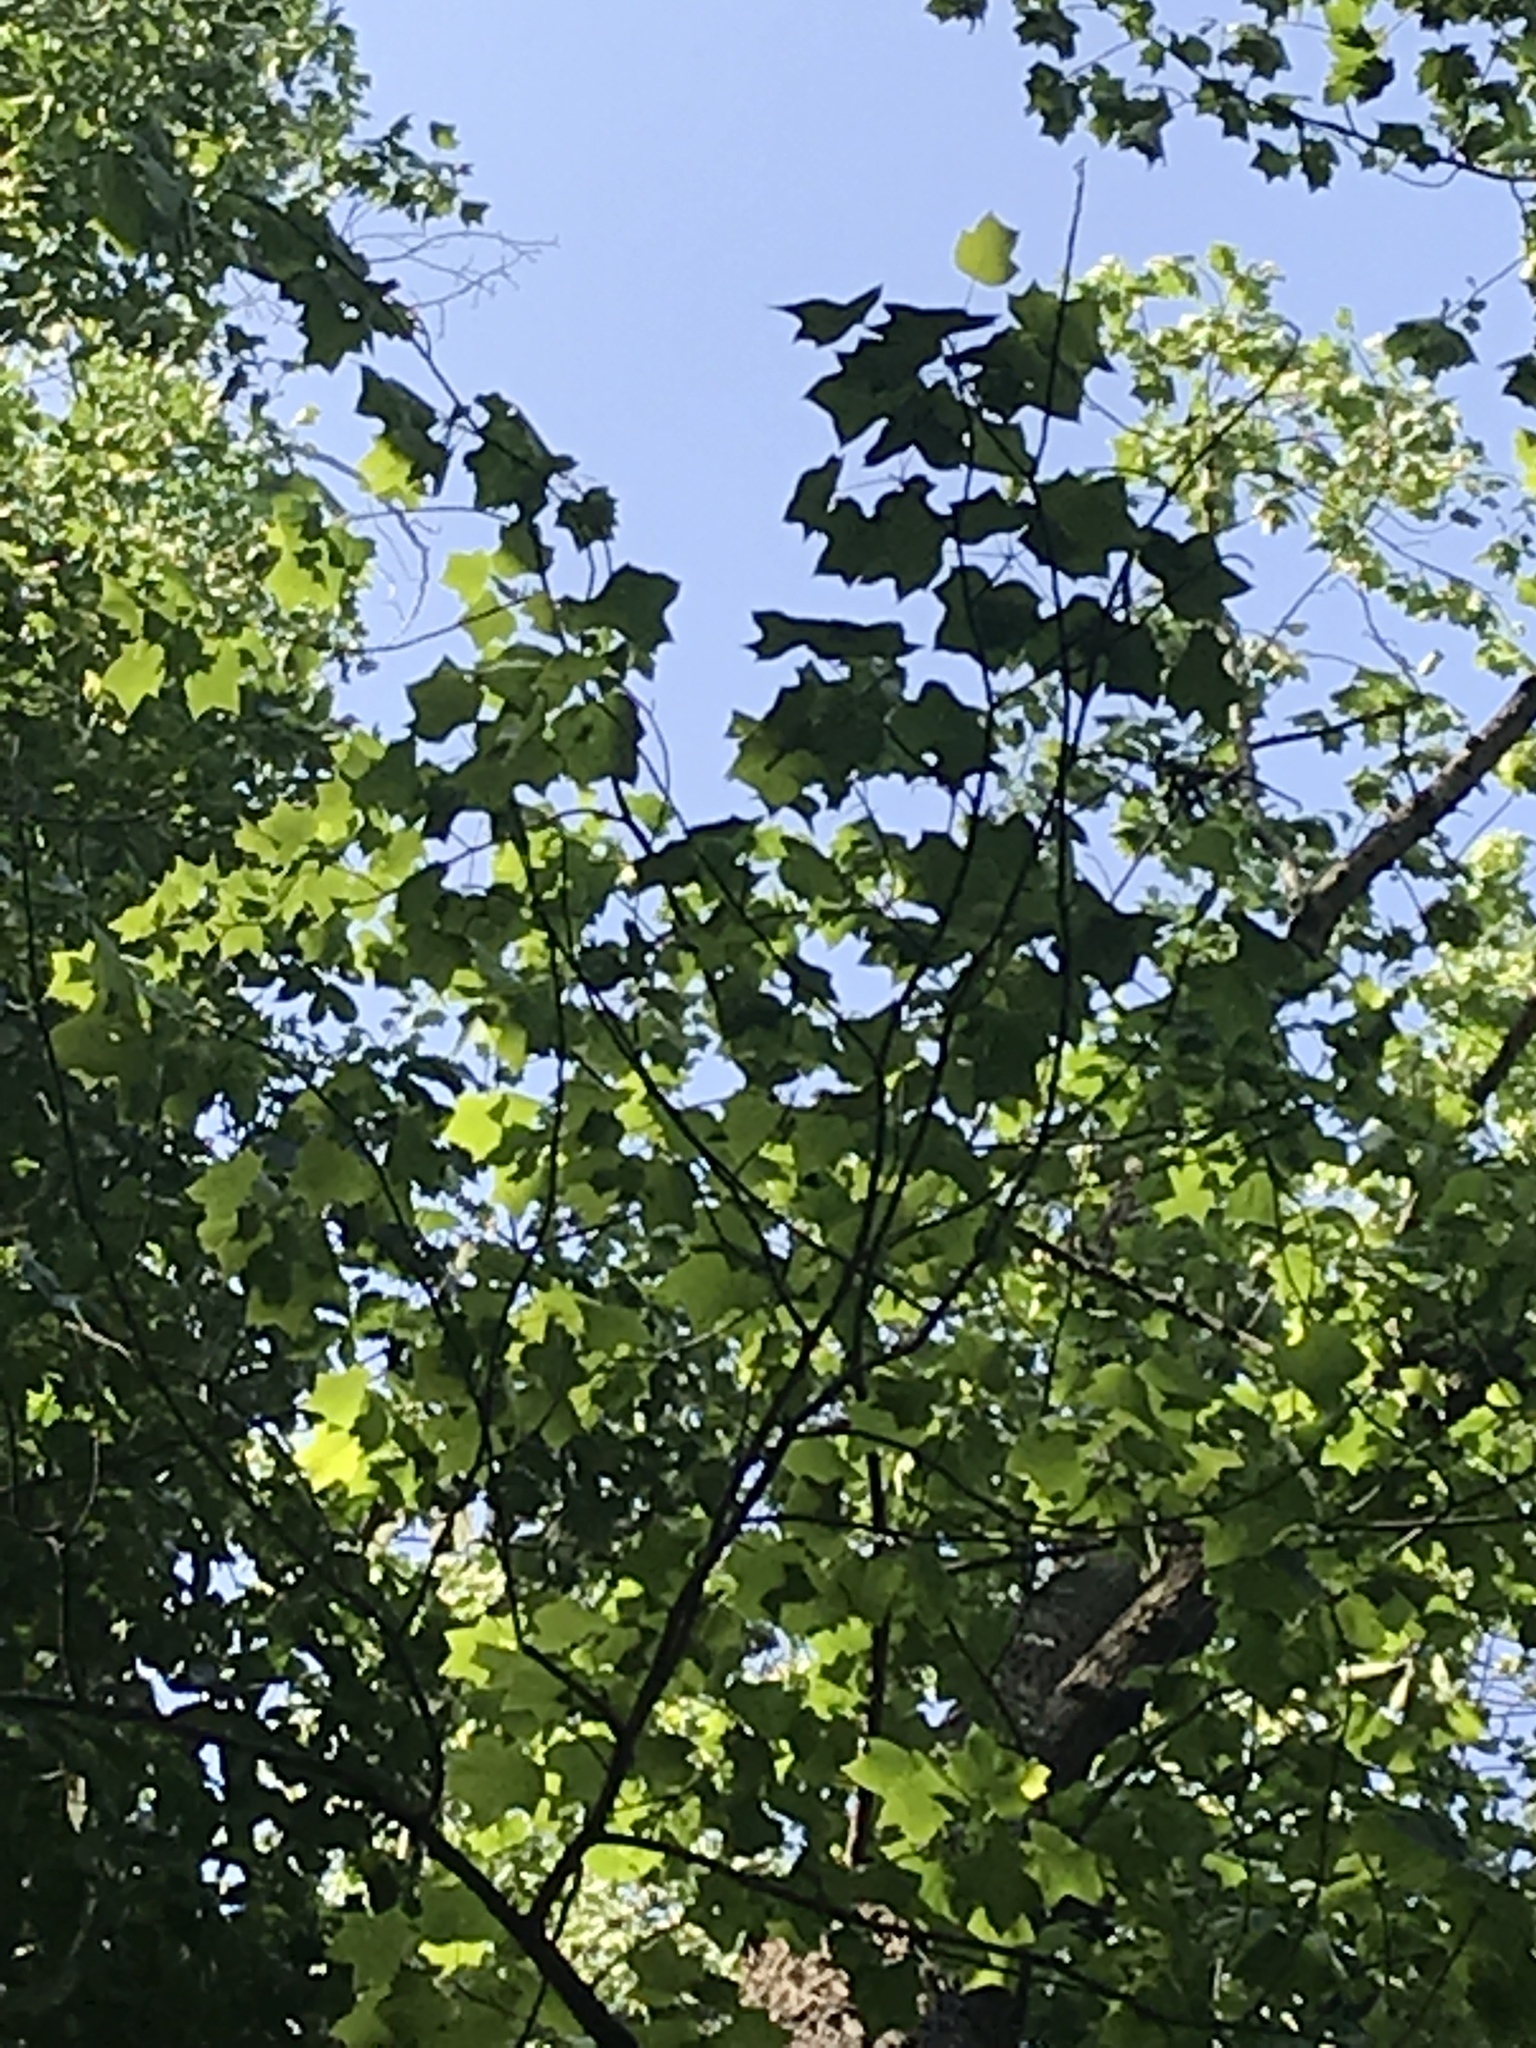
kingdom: Plantae
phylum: Tracheophyta
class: Magnoliopsida
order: Magnoliales
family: Magnoliaceae
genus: Liriodendron
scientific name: Liriodendron tulipifera
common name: Tulip tree
